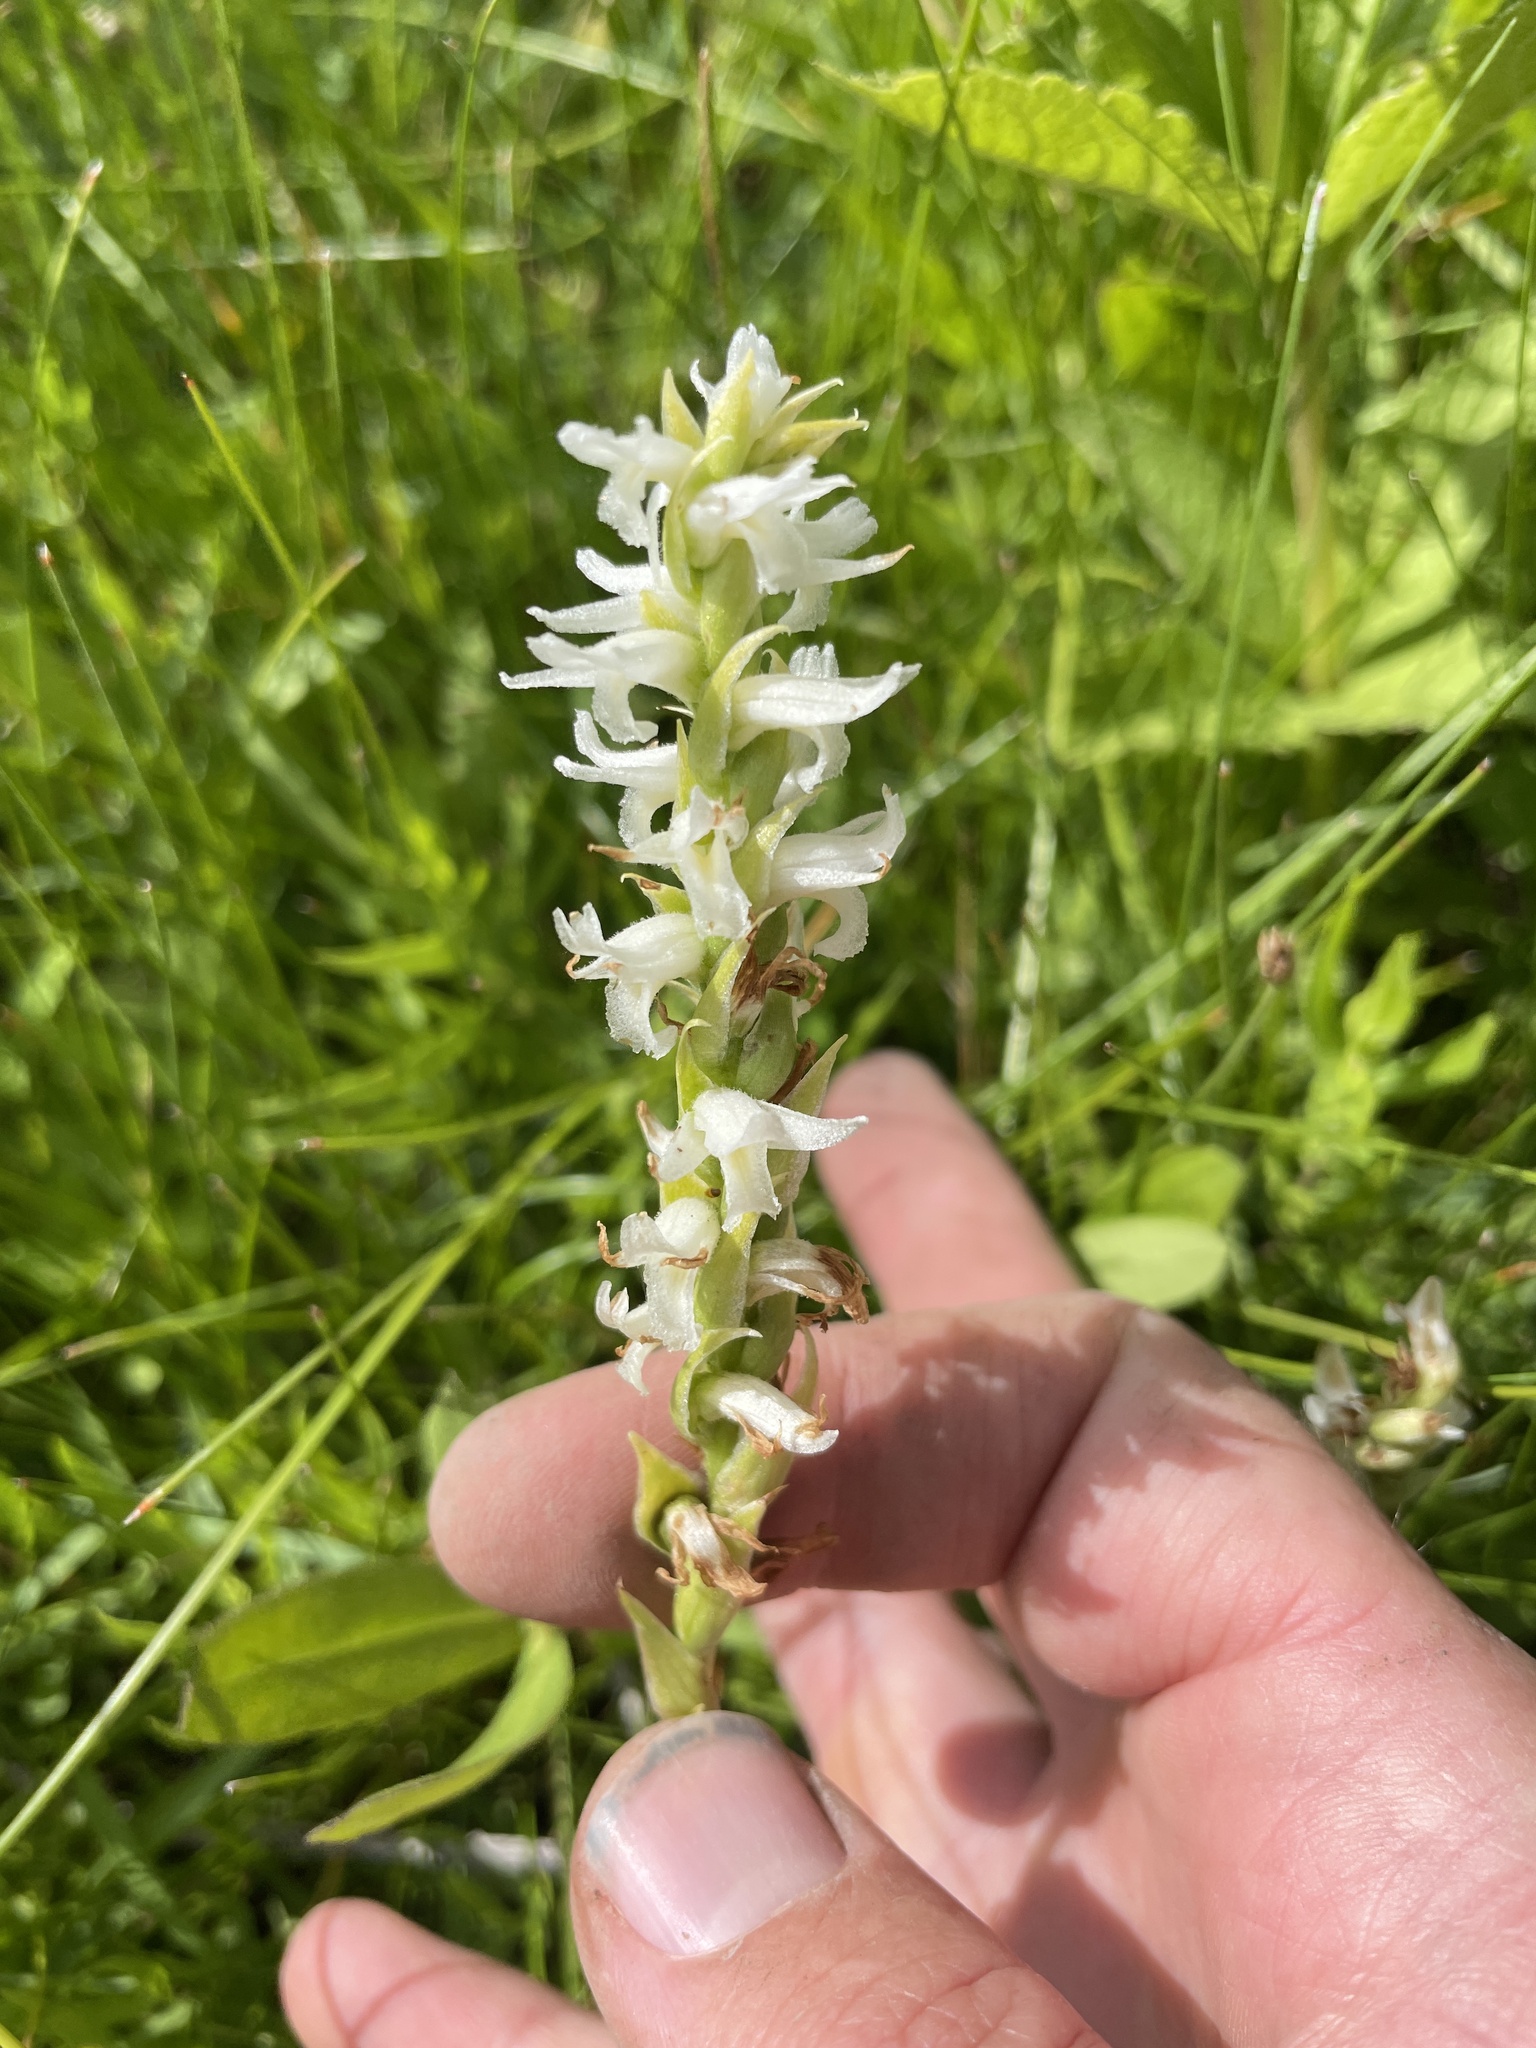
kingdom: Plantae
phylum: Tracheophyta
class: Liliopsida
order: Asparagales
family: Orchidaceae
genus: Spiranthes
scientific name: Spiranthes diluvialis
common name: Ute ladies'-tresses
